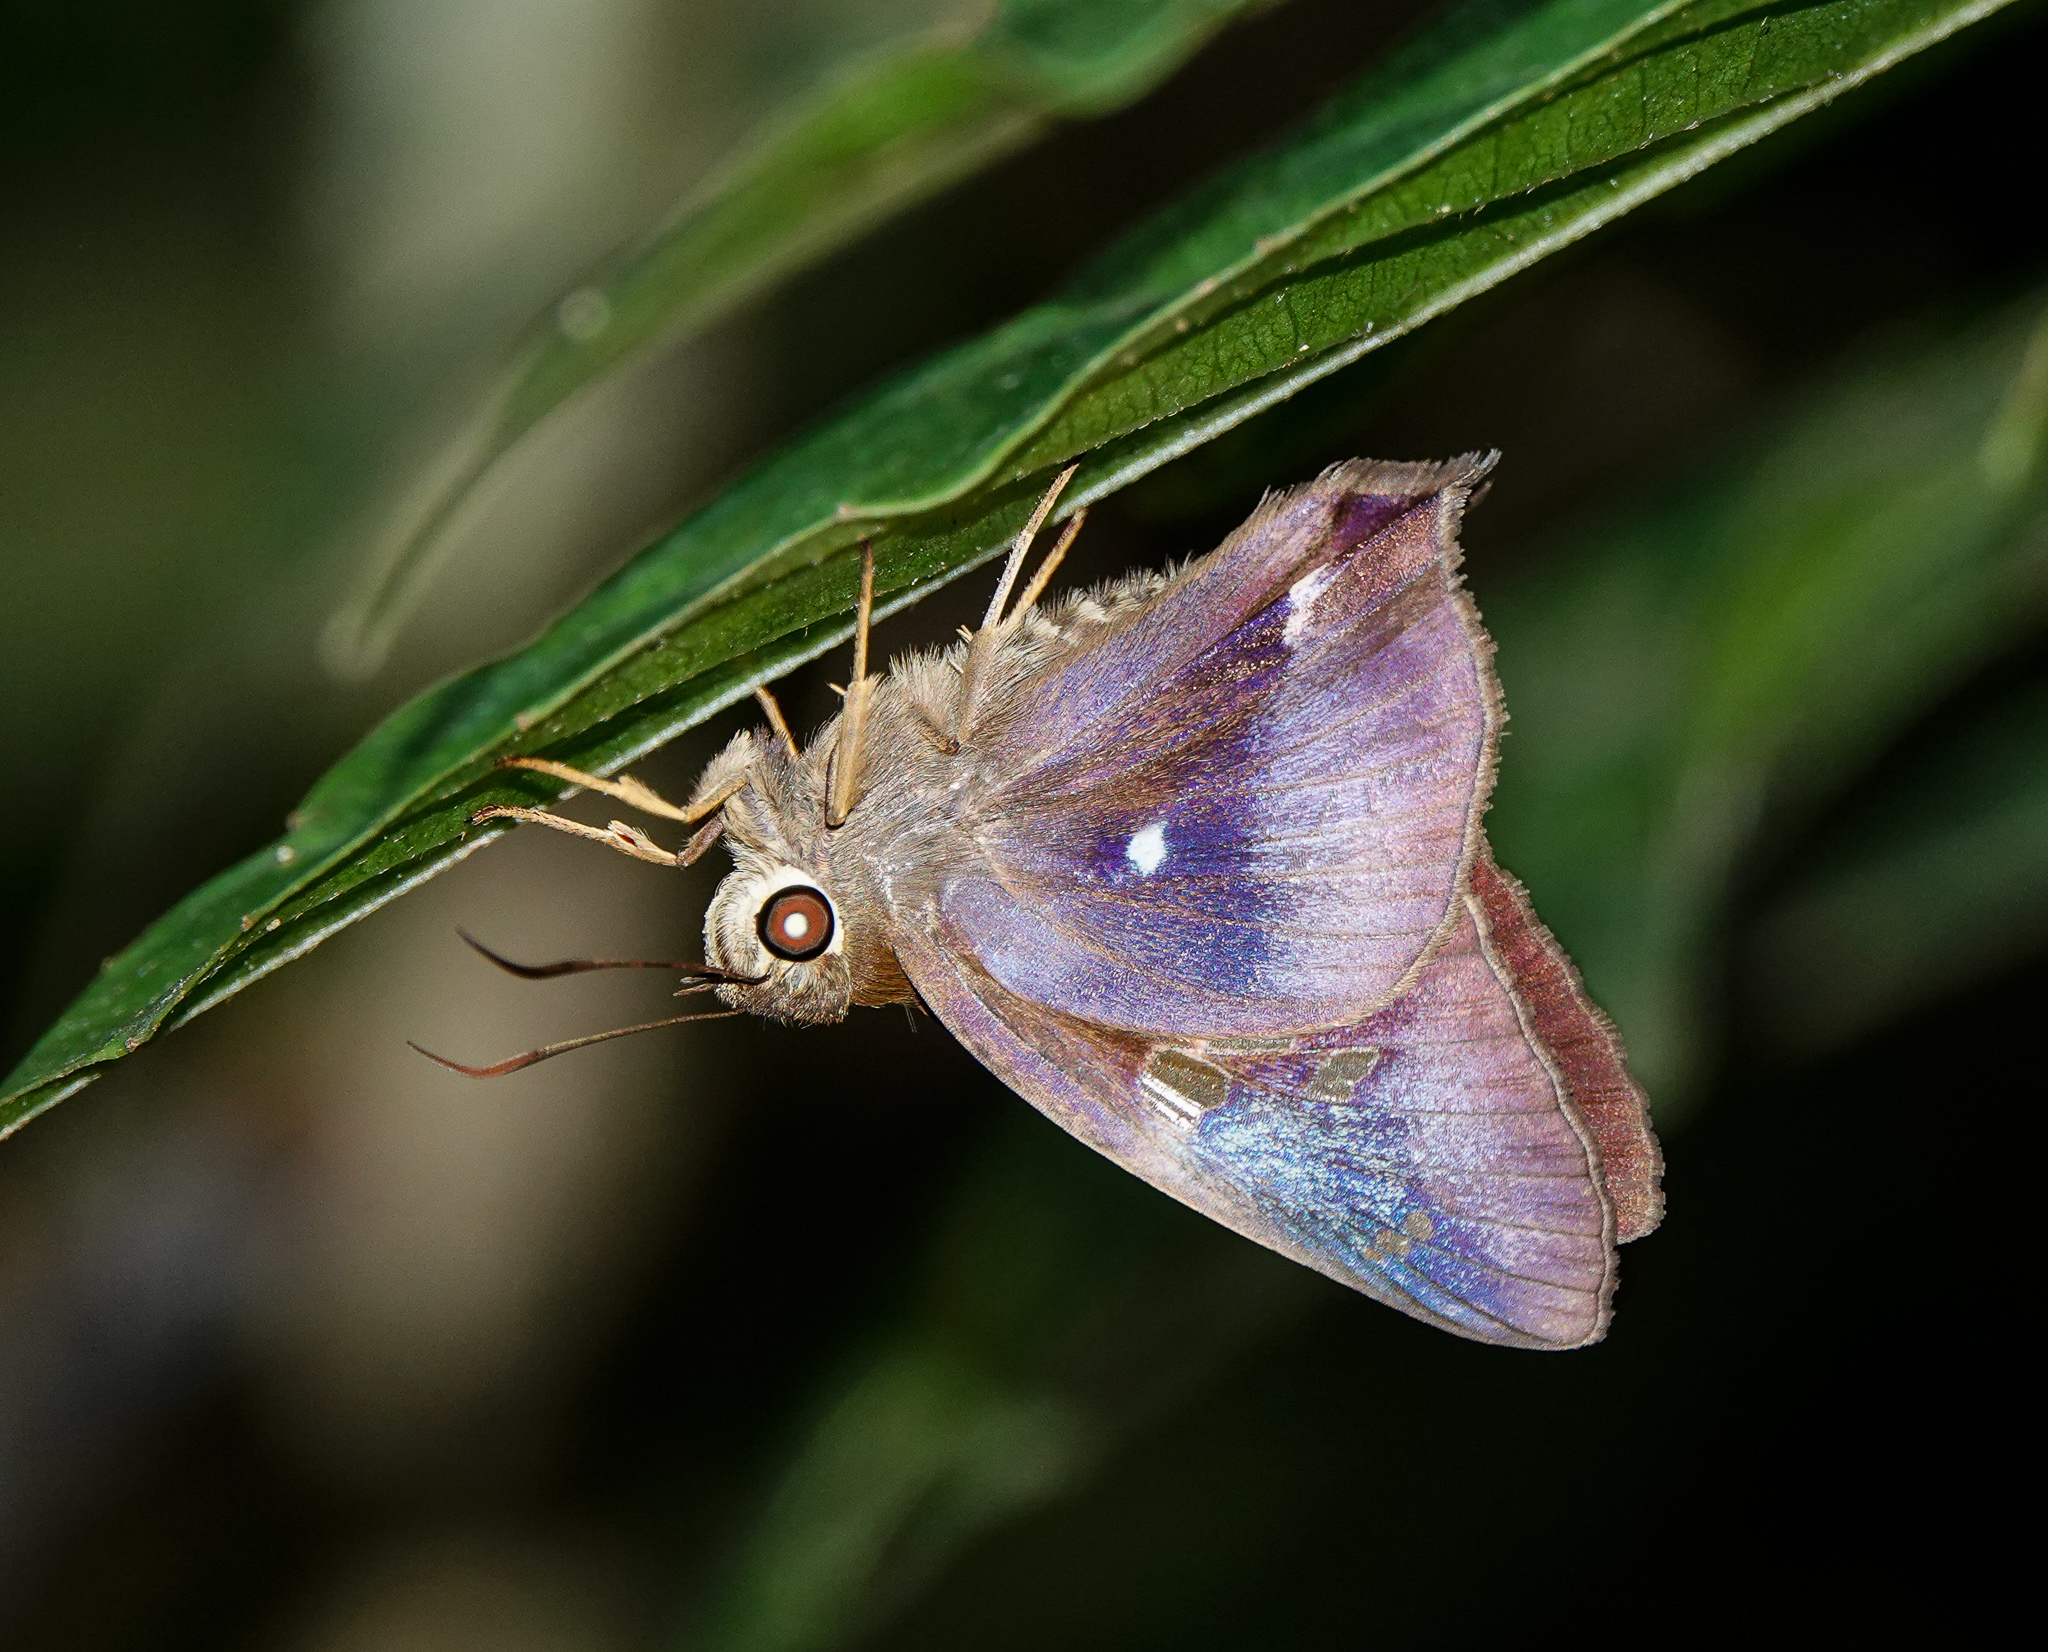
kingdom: Animalia
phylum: Arthropoda
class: Insecta
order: Lepidoptera
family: Hesperiidae
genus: Hasora
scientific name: Hasora badra
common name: Common awl
